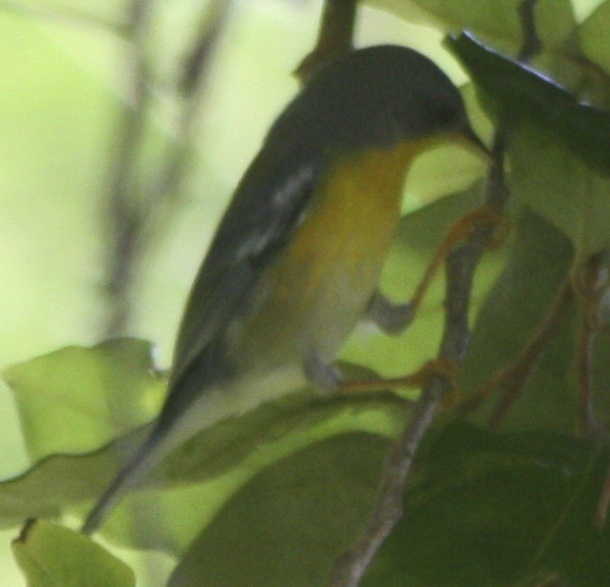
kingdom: Animalia
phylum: Chordata
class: Aves
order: Passeriformes
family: Parulidae
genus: Setophaga
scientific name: Setophaga pitiayumi
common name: Tropical parula
